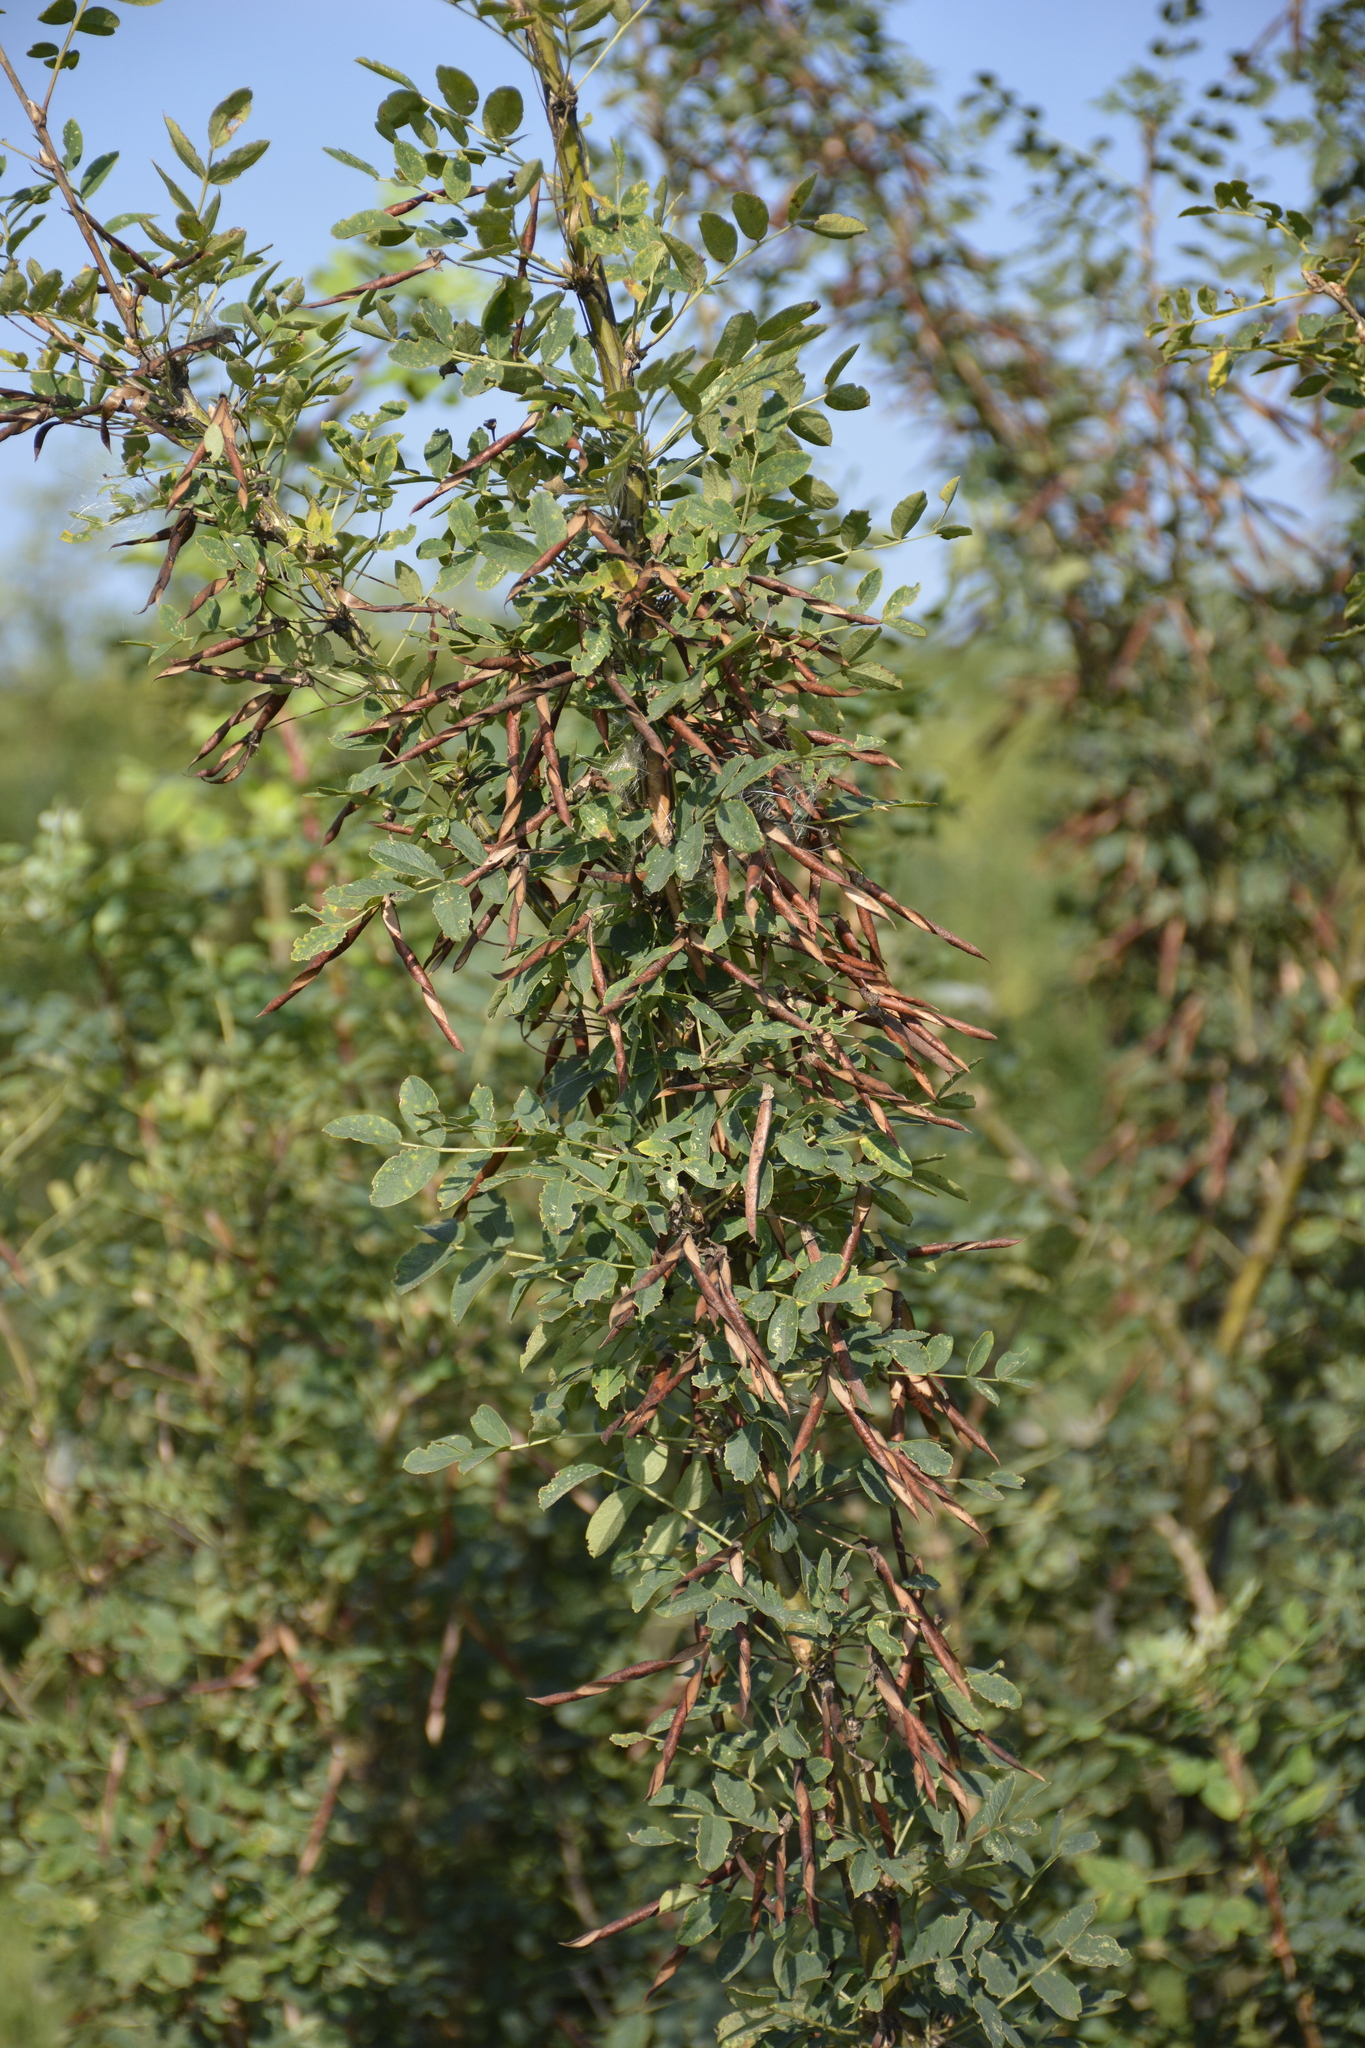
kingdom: Plantae
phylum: Tracheophyta
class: Magnoliopsida
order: Fabales
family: Fabaceae
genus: Caragana
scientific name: Caragana arborescens
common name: Siberian peashrub
